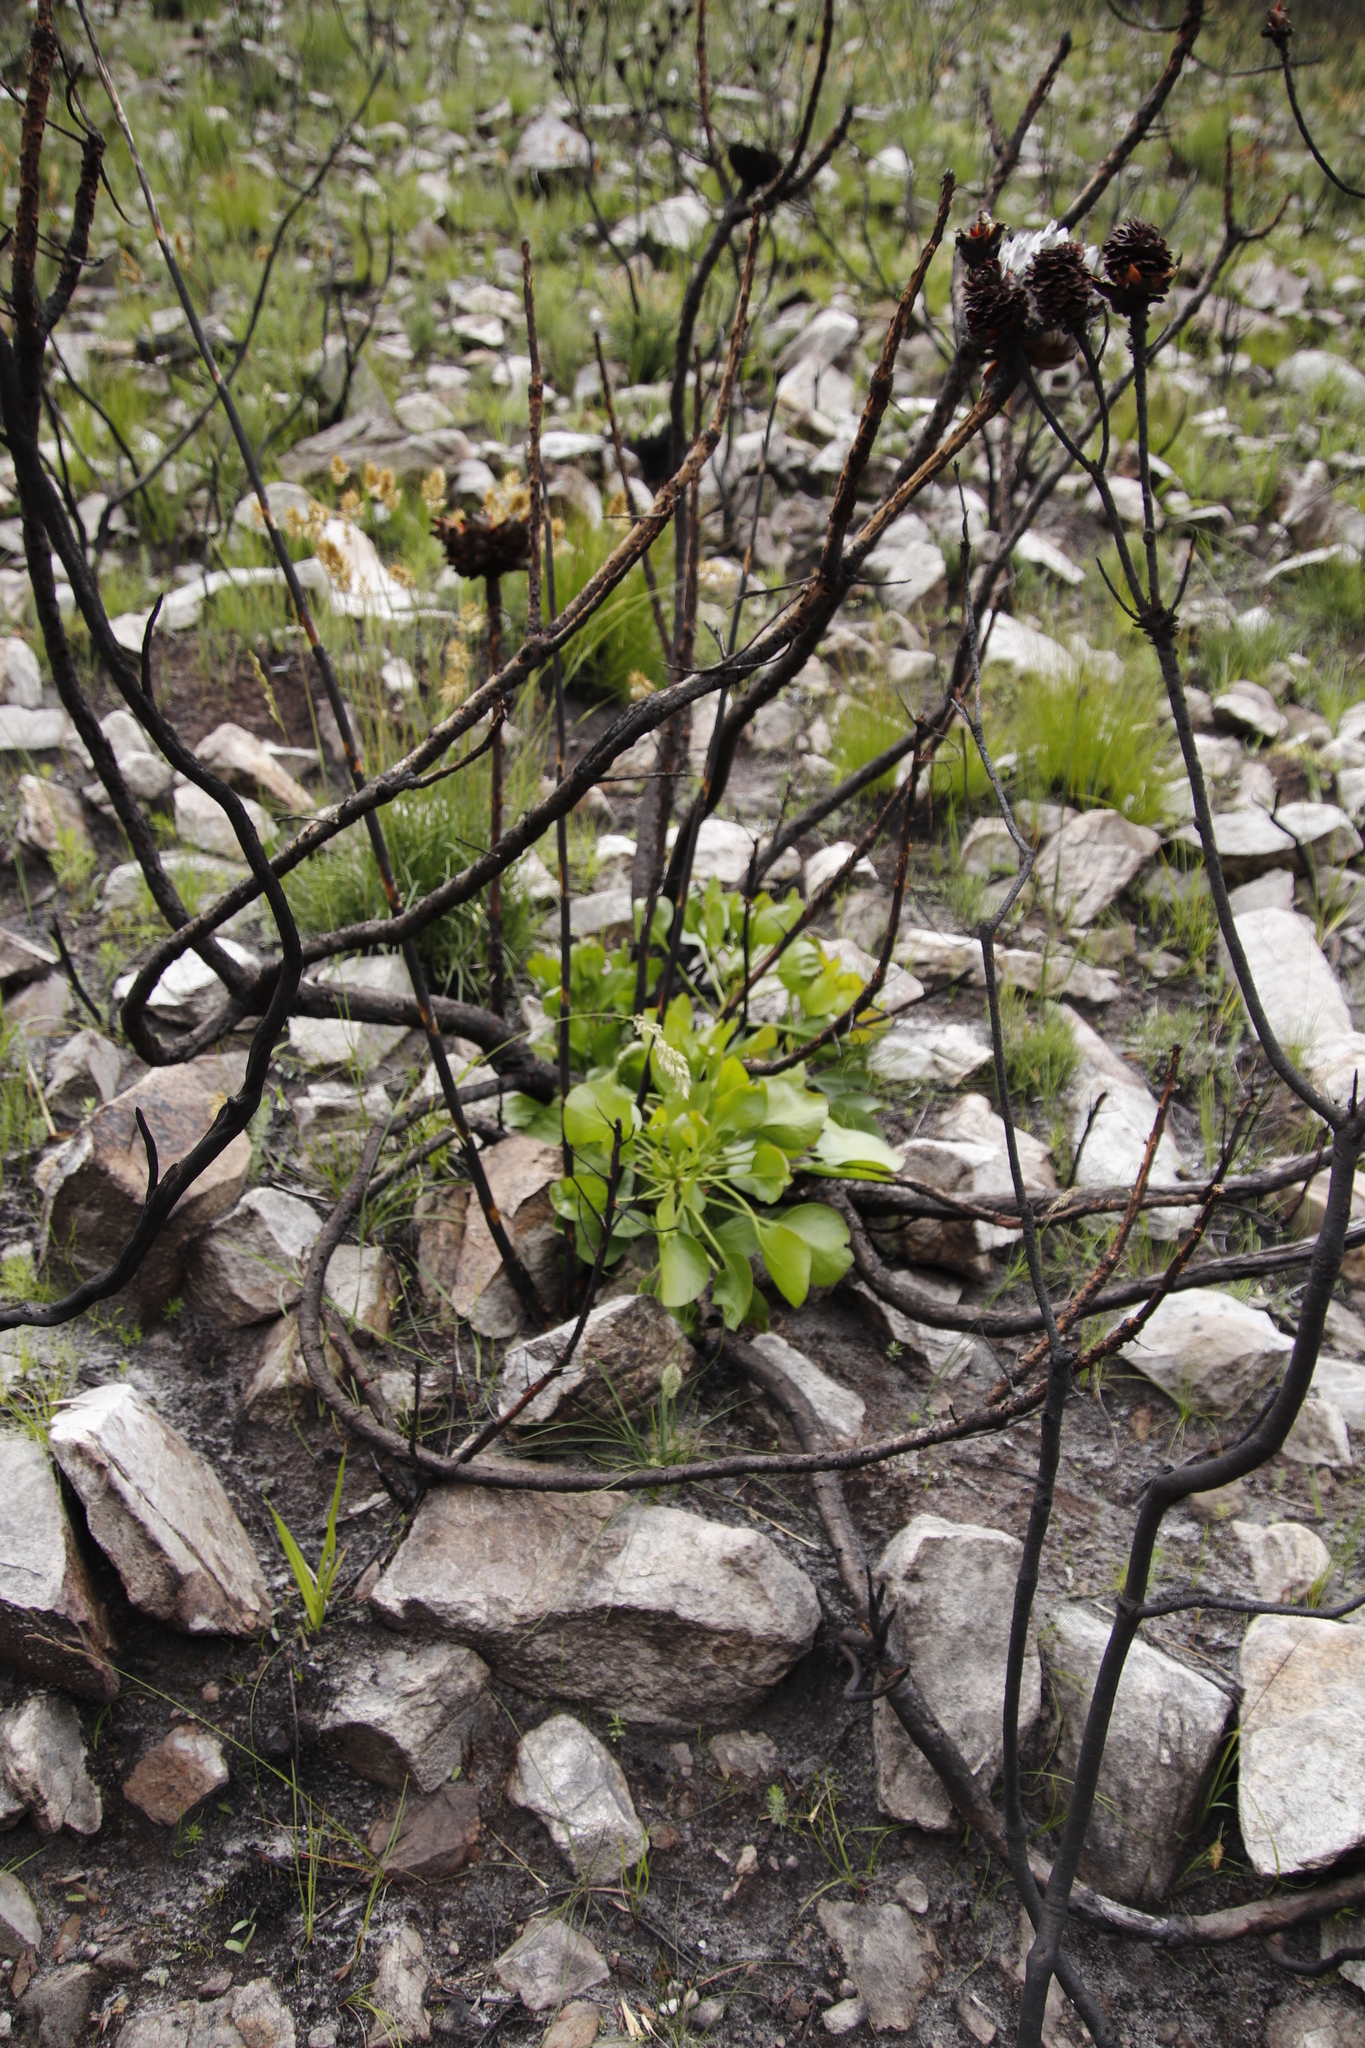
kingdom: Plantae
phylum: Tracheophyta
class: Magnoliopsida
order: Proteales
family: Proteaceae
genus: Protea
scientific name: Protea cynaroides
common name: King protea
